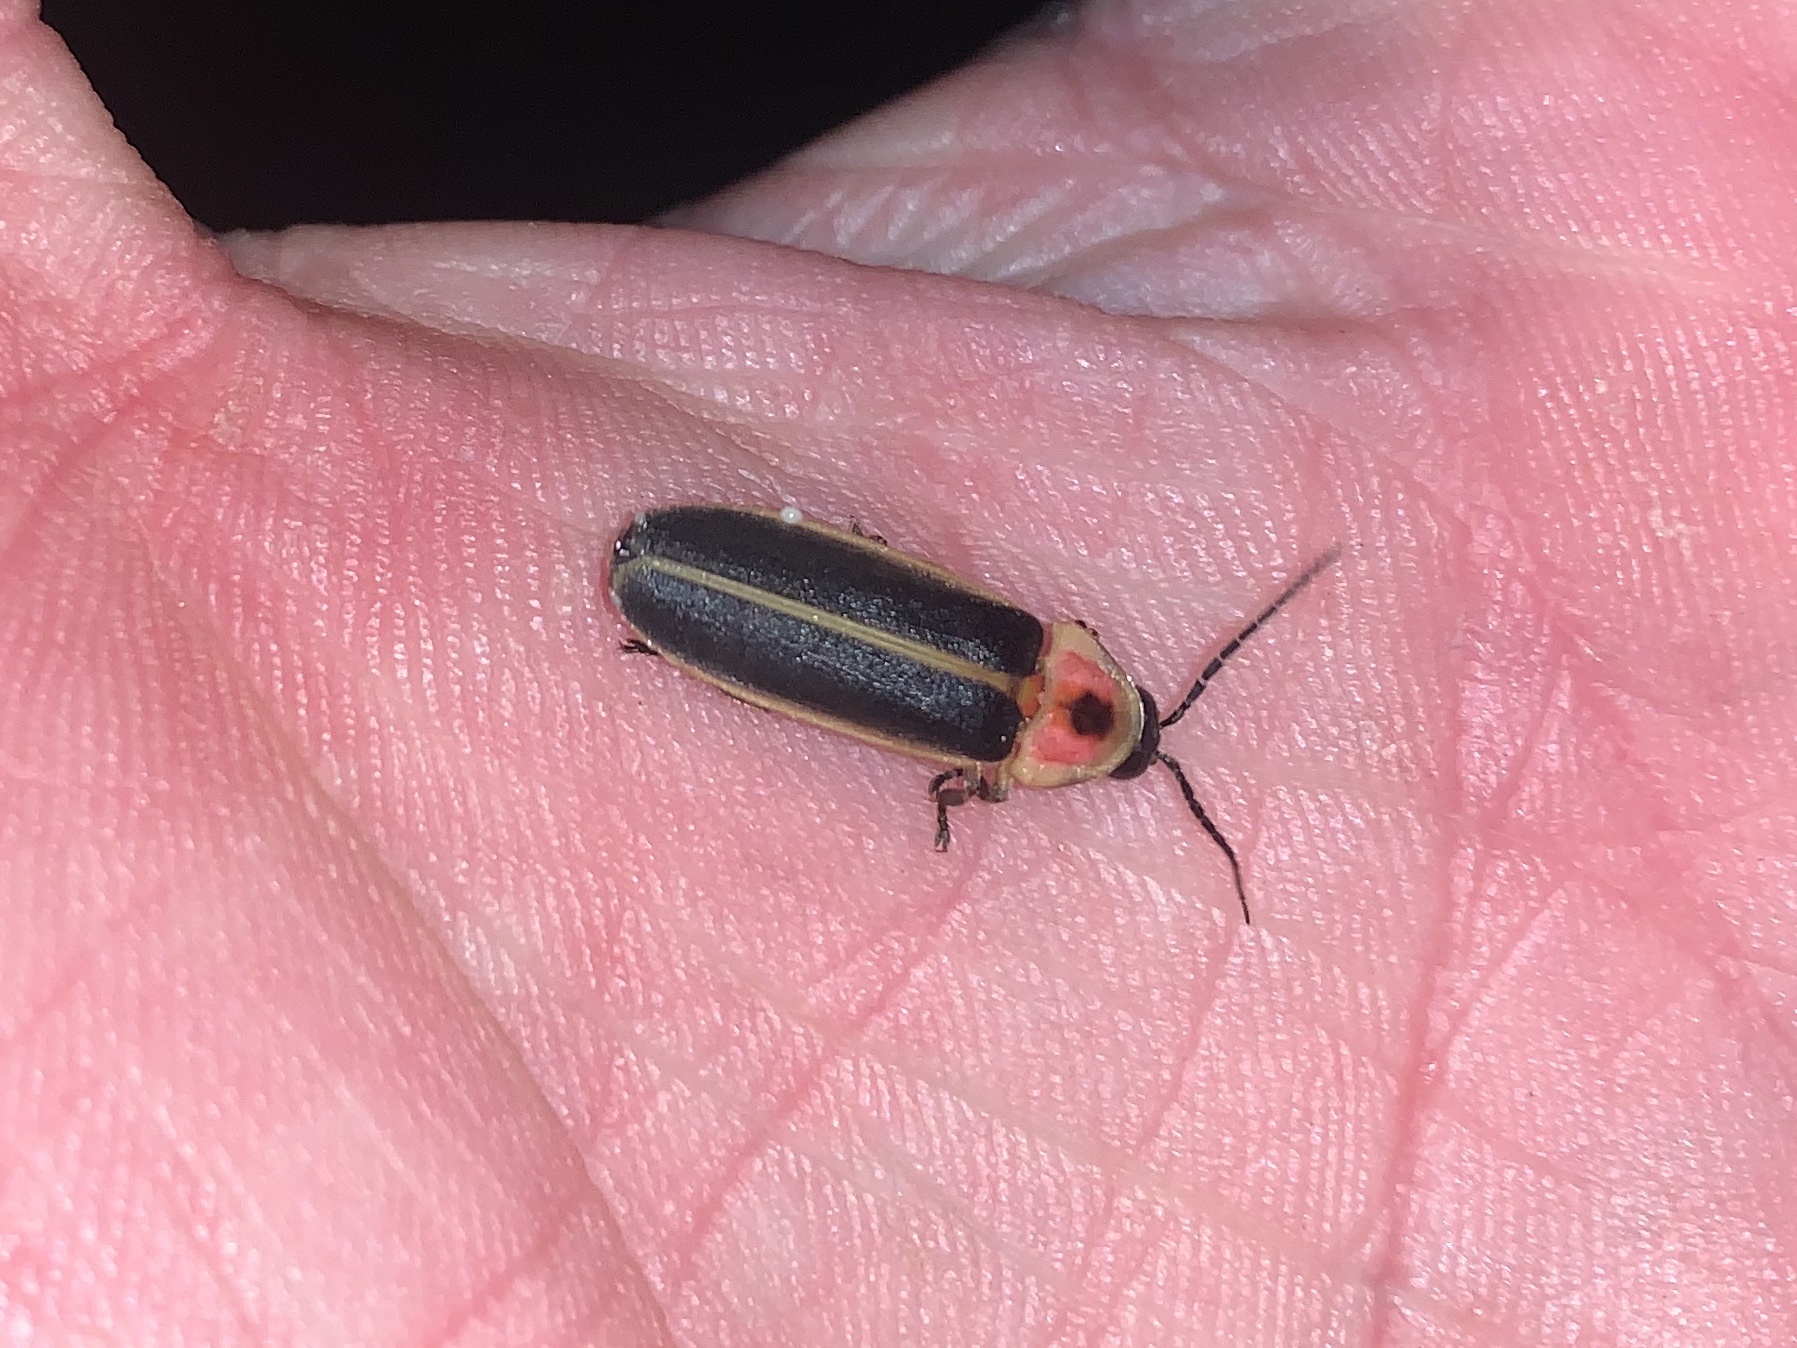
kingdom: Animalia
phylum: Arthropoda
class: Insecta
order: Coleoptera
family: Lampyridae
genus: Photinus
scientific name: Photinus pyralis
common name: Big dipper firefly
